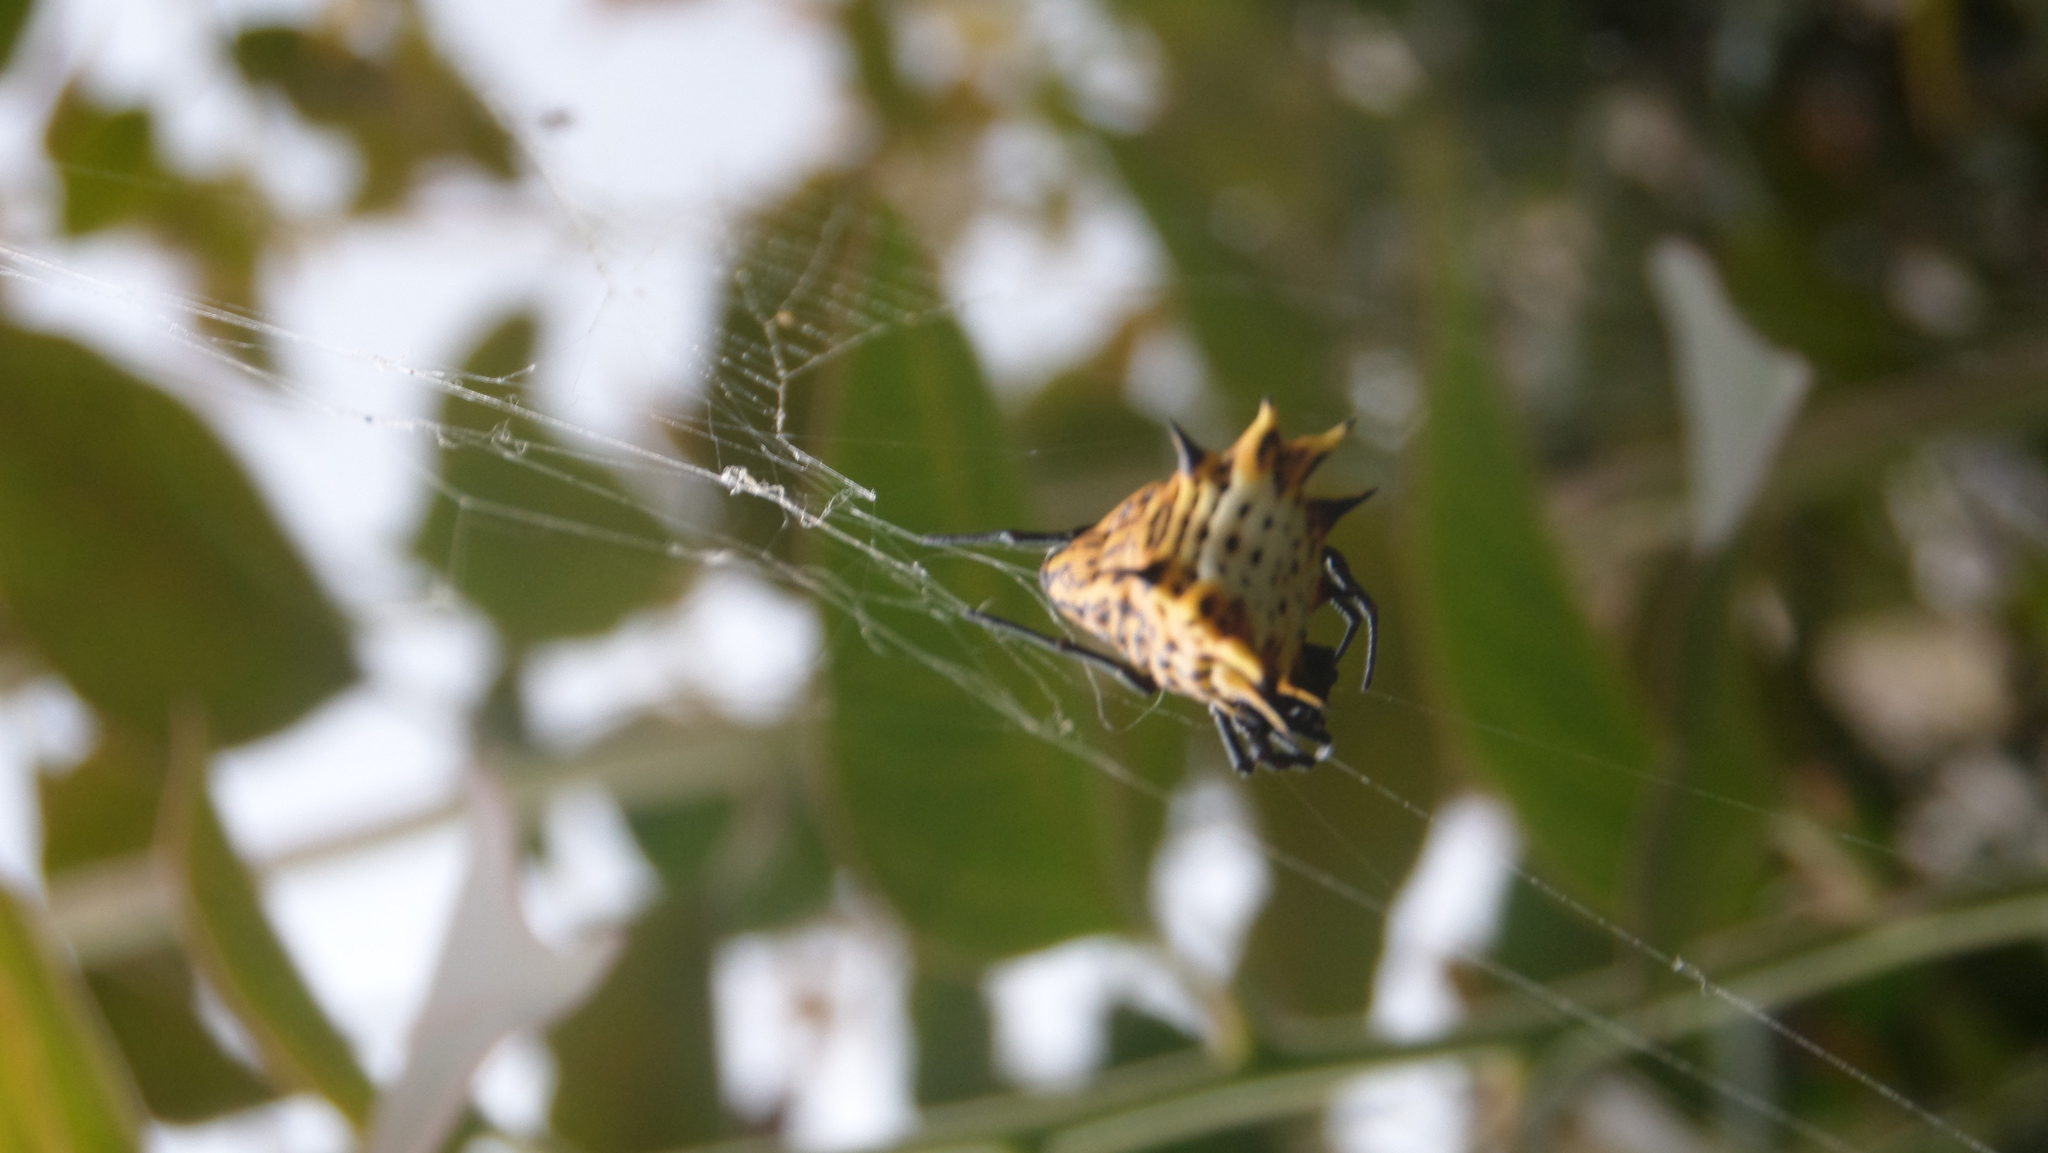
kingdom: Animalia
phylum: Arthropoda
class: Arachnida
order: Araneae
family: Araneidae
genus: Micrathena
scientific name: Micrathena gracilis
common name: Orb weavers
